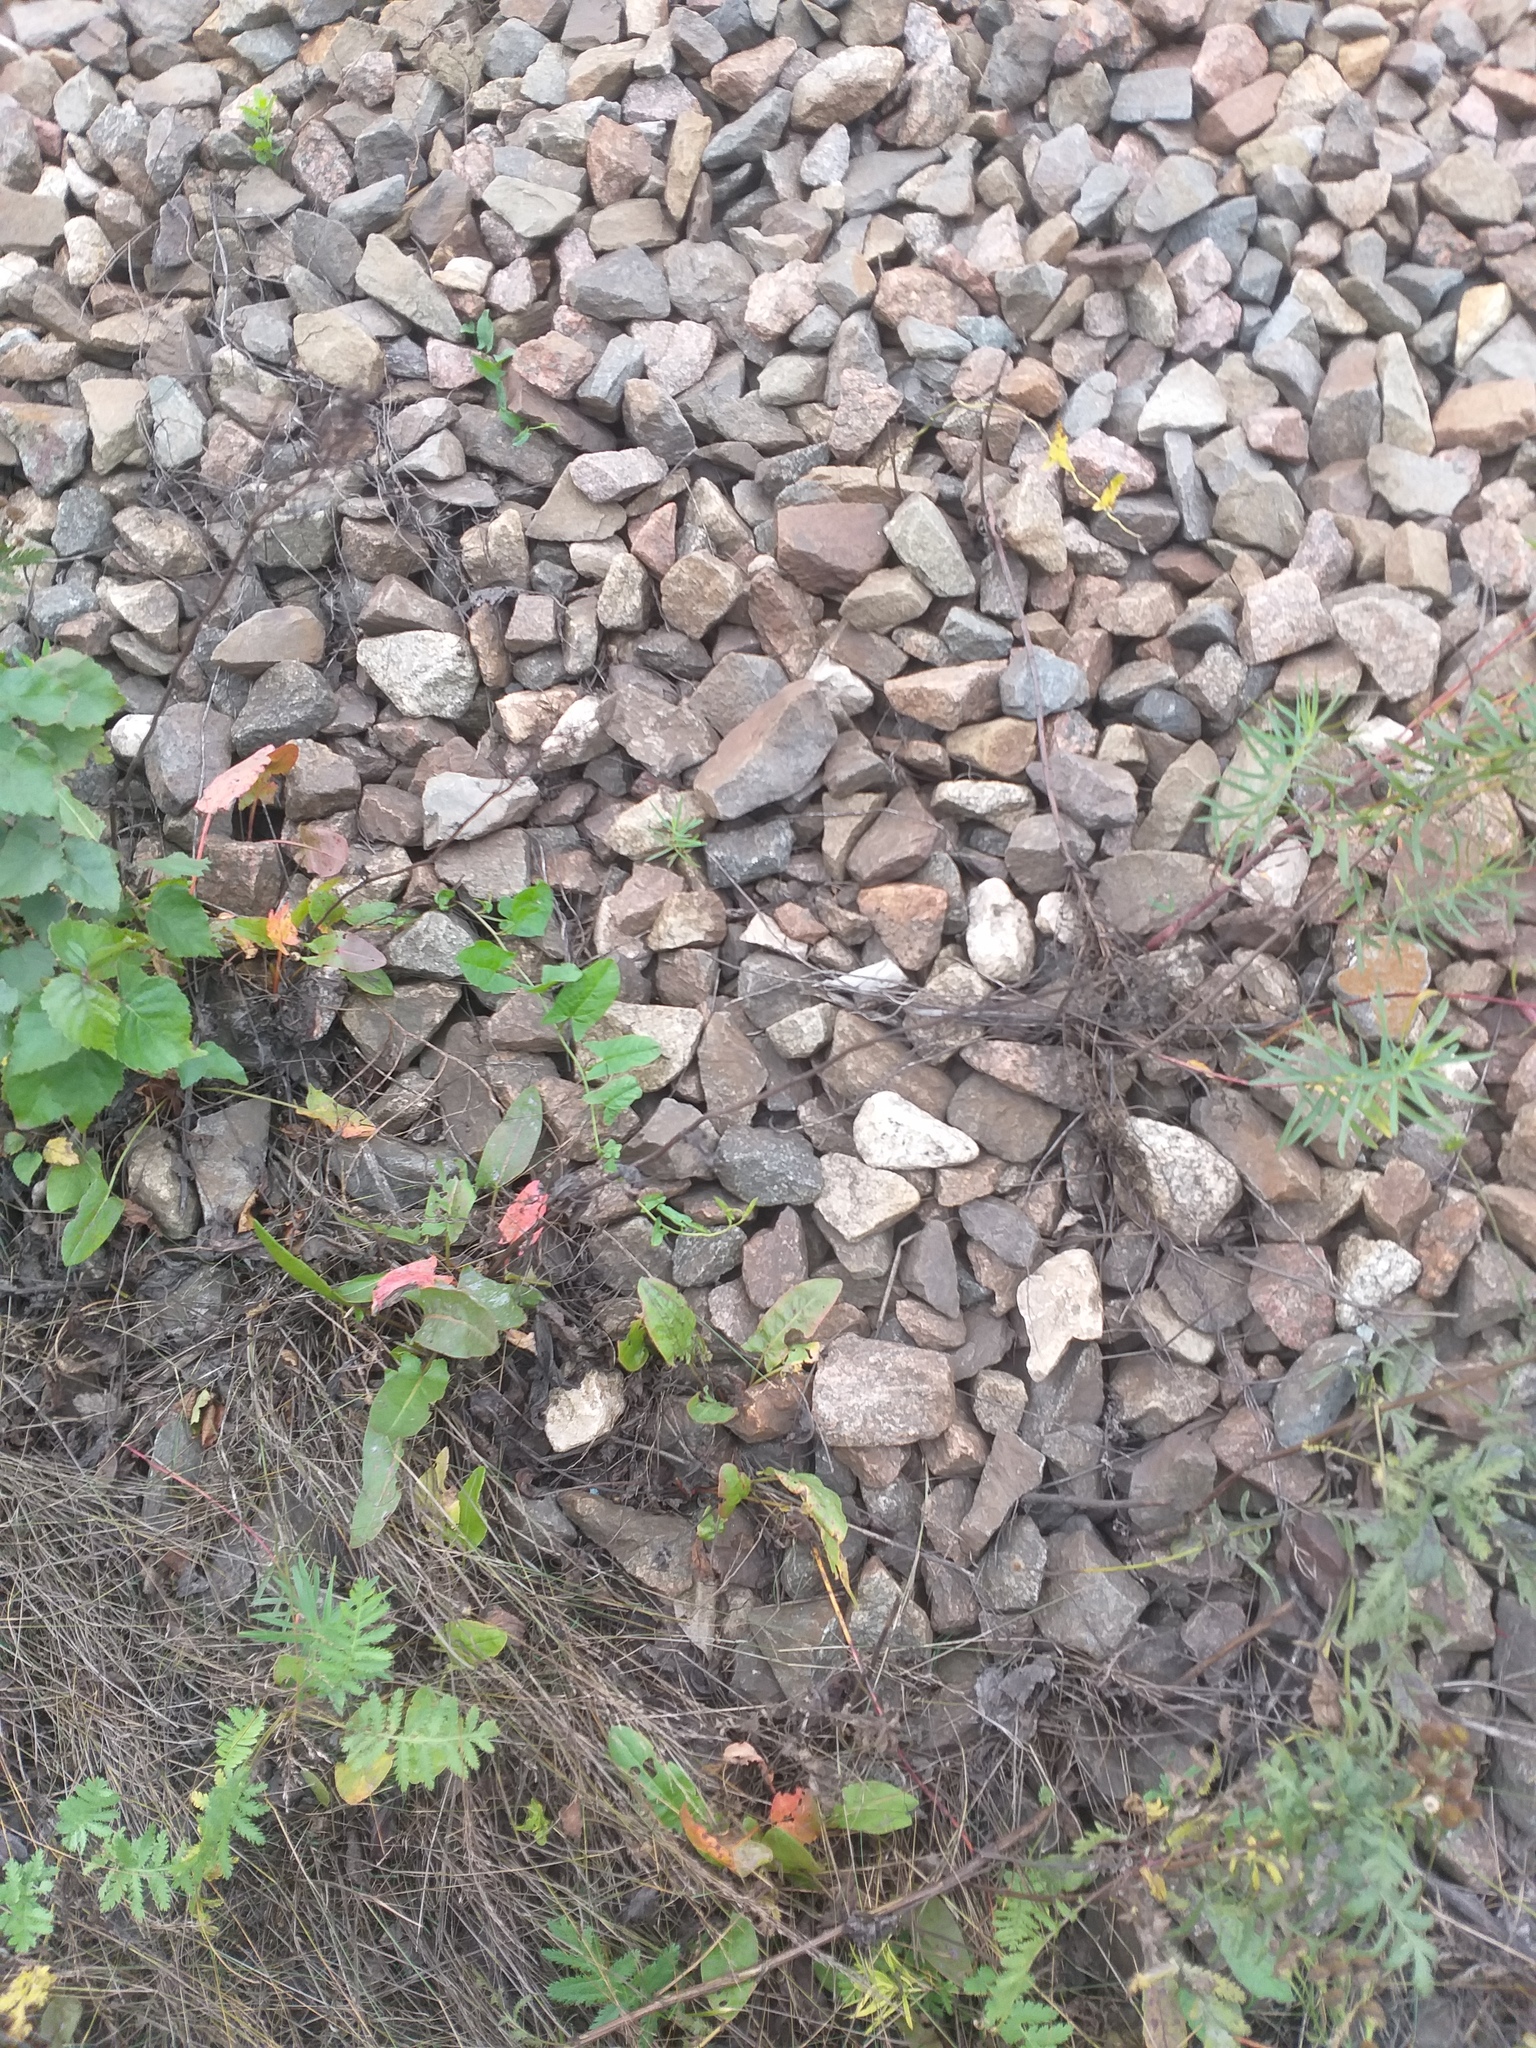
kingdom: Plantae
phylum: Tracheophyta
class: Magnoliopsida
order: Solanales
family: Convolvulaceae
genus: Convolvulus
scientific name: Convolvulus arvensis
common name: Field bindweed
